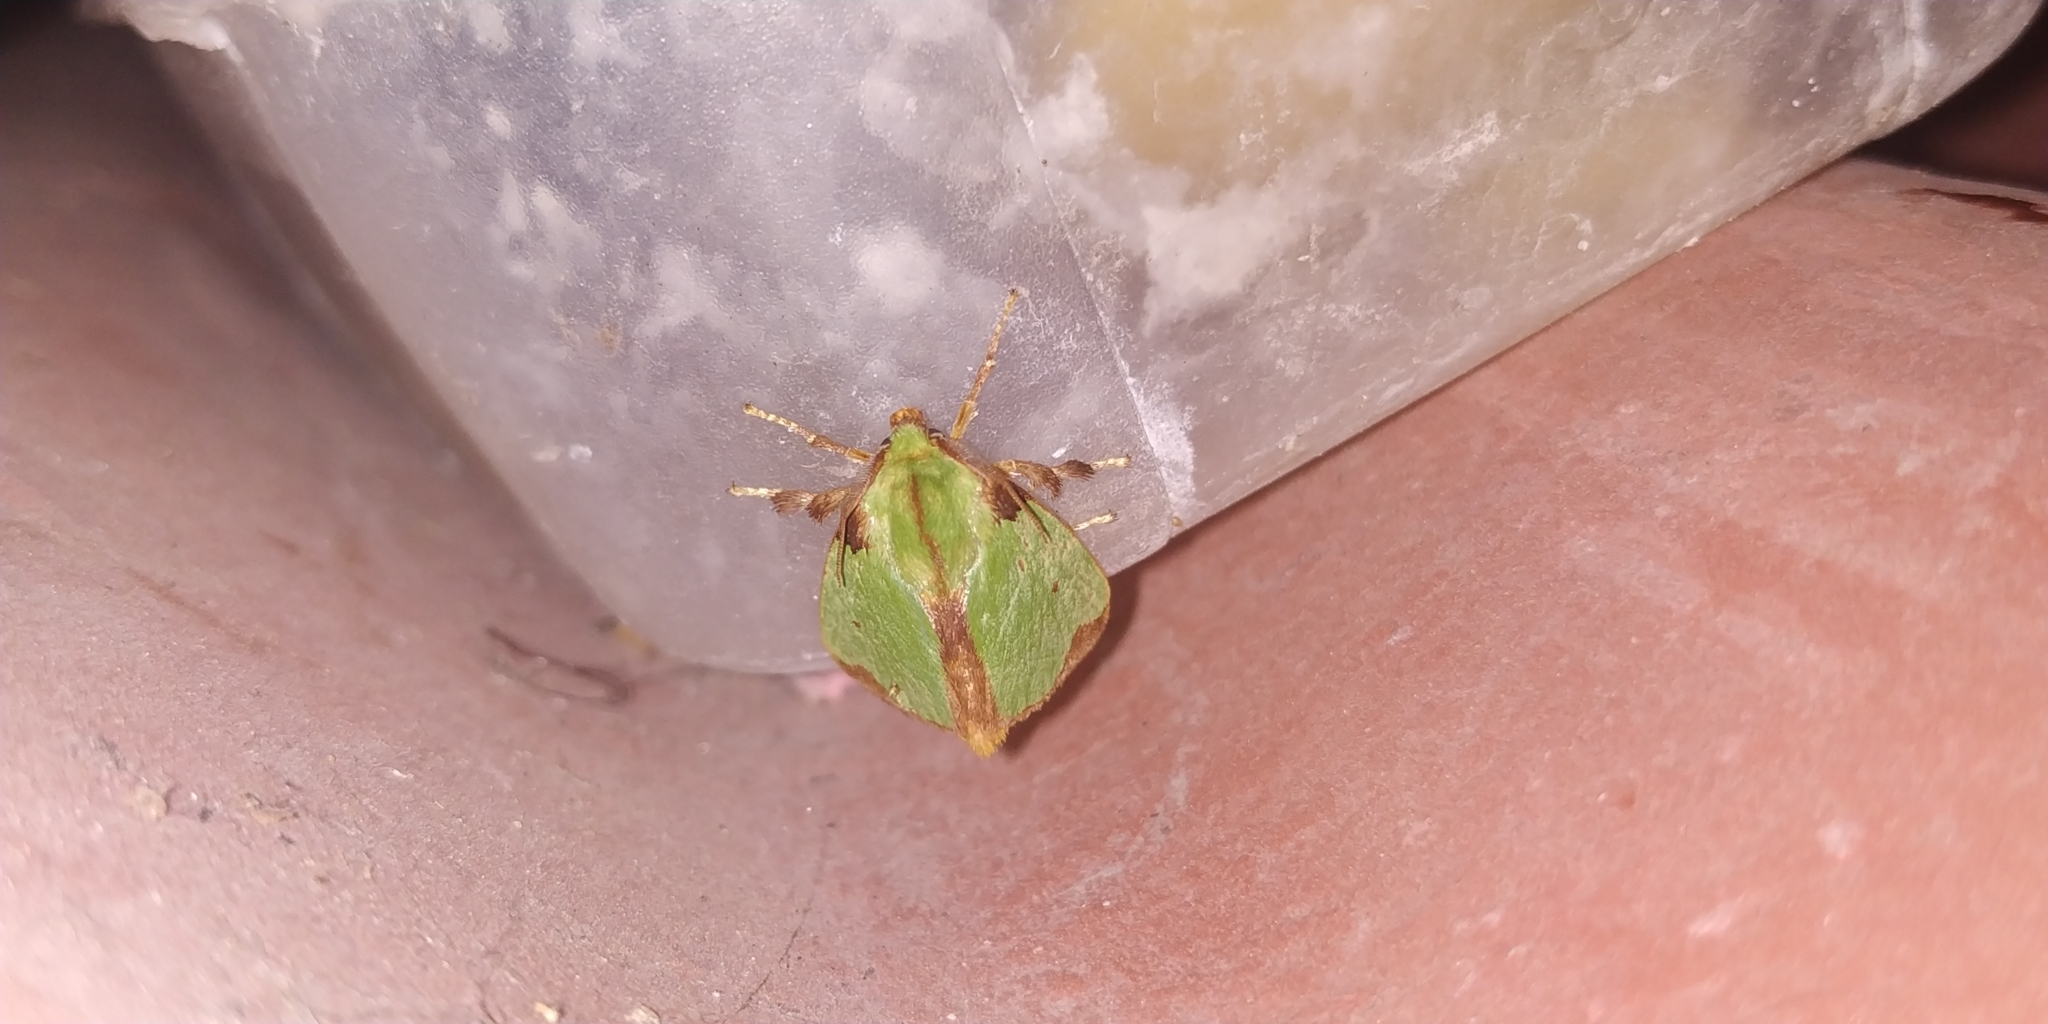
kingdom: Animalia
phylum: Arthropoda
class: Insecta
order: Lepidoptera
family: Limacodidae
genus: Parasa
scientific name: Parasa wellesca
